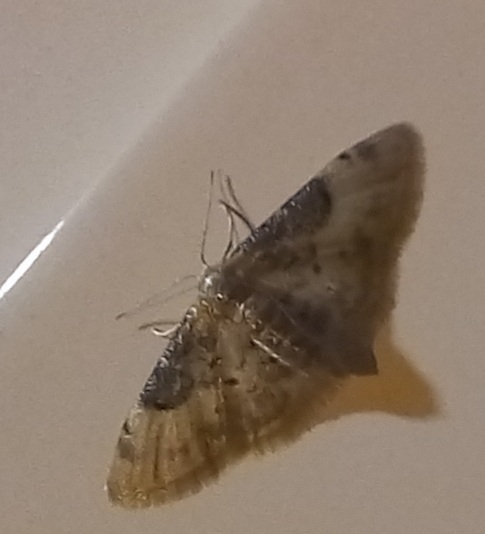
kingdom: Animalia
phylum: Arthropoda
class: Insecta
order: Lepidoptera
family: Geometridae
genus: Idaea
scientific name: Idaea filicata
